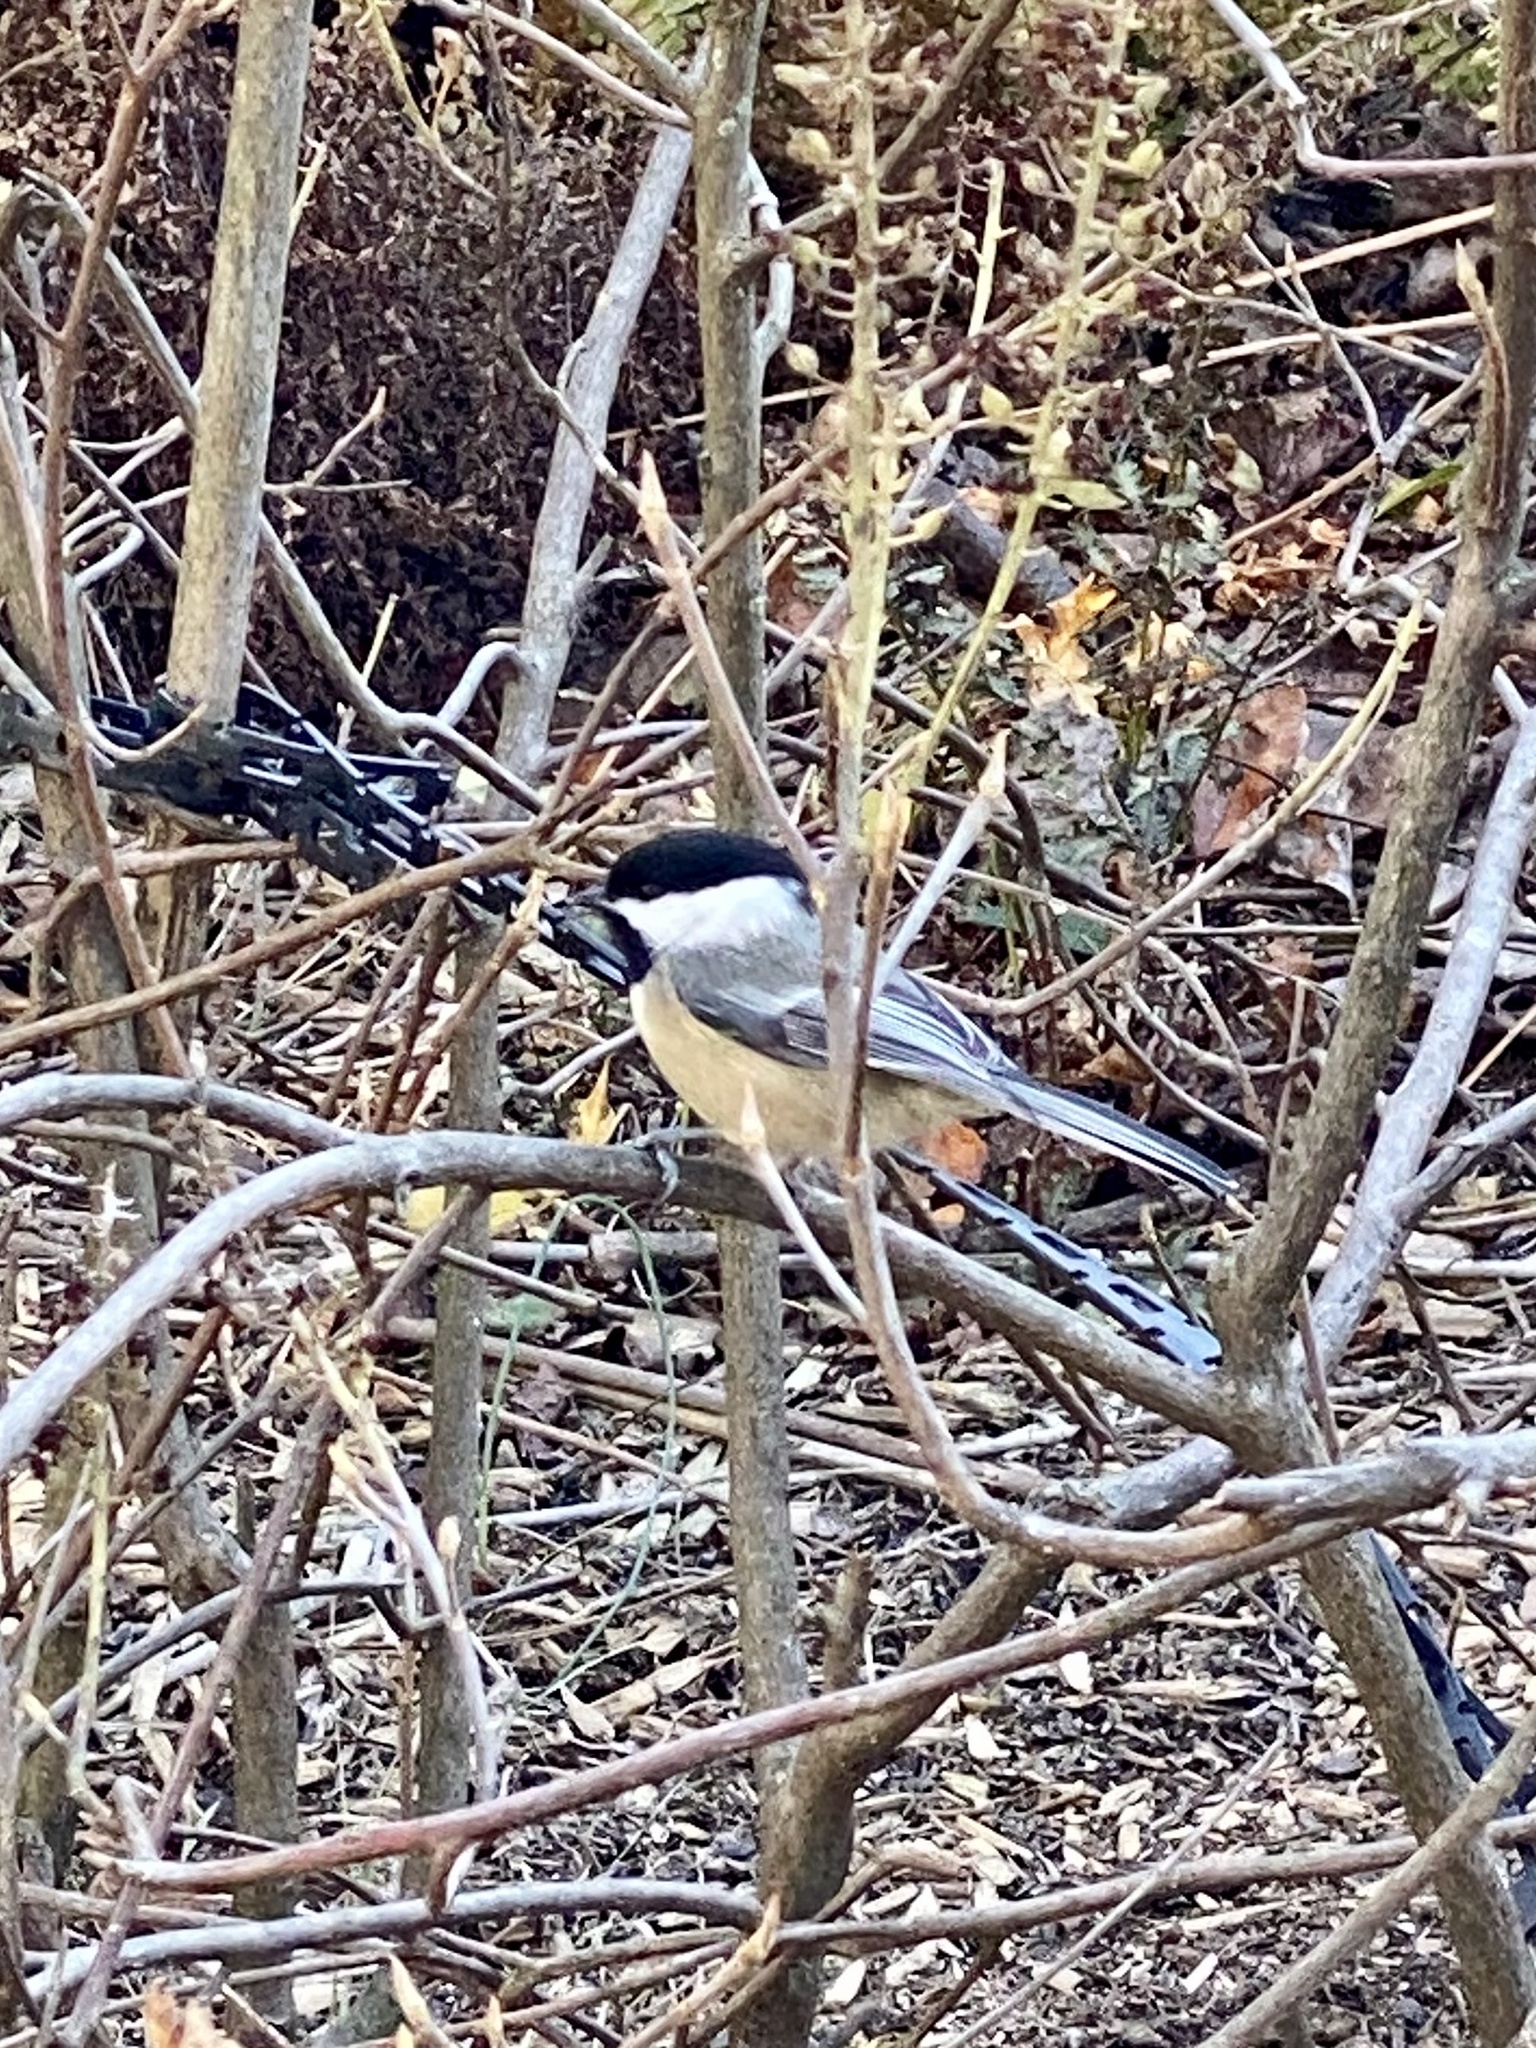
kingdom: Animalia
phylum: Chordata
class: Aves
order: Passeriformes
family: Paridae
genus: Poecile
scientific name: Poecile atricapillus
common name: Black-capped chickadee
